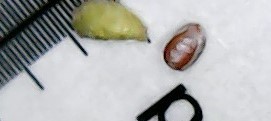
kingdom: Plantae
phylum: Tracheophyta
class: Magnoliopsida
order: Malpighiales
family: Euphorbiaceae
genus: Euphorbia
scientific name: Euphorbia maculata
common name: Spotted spurge
